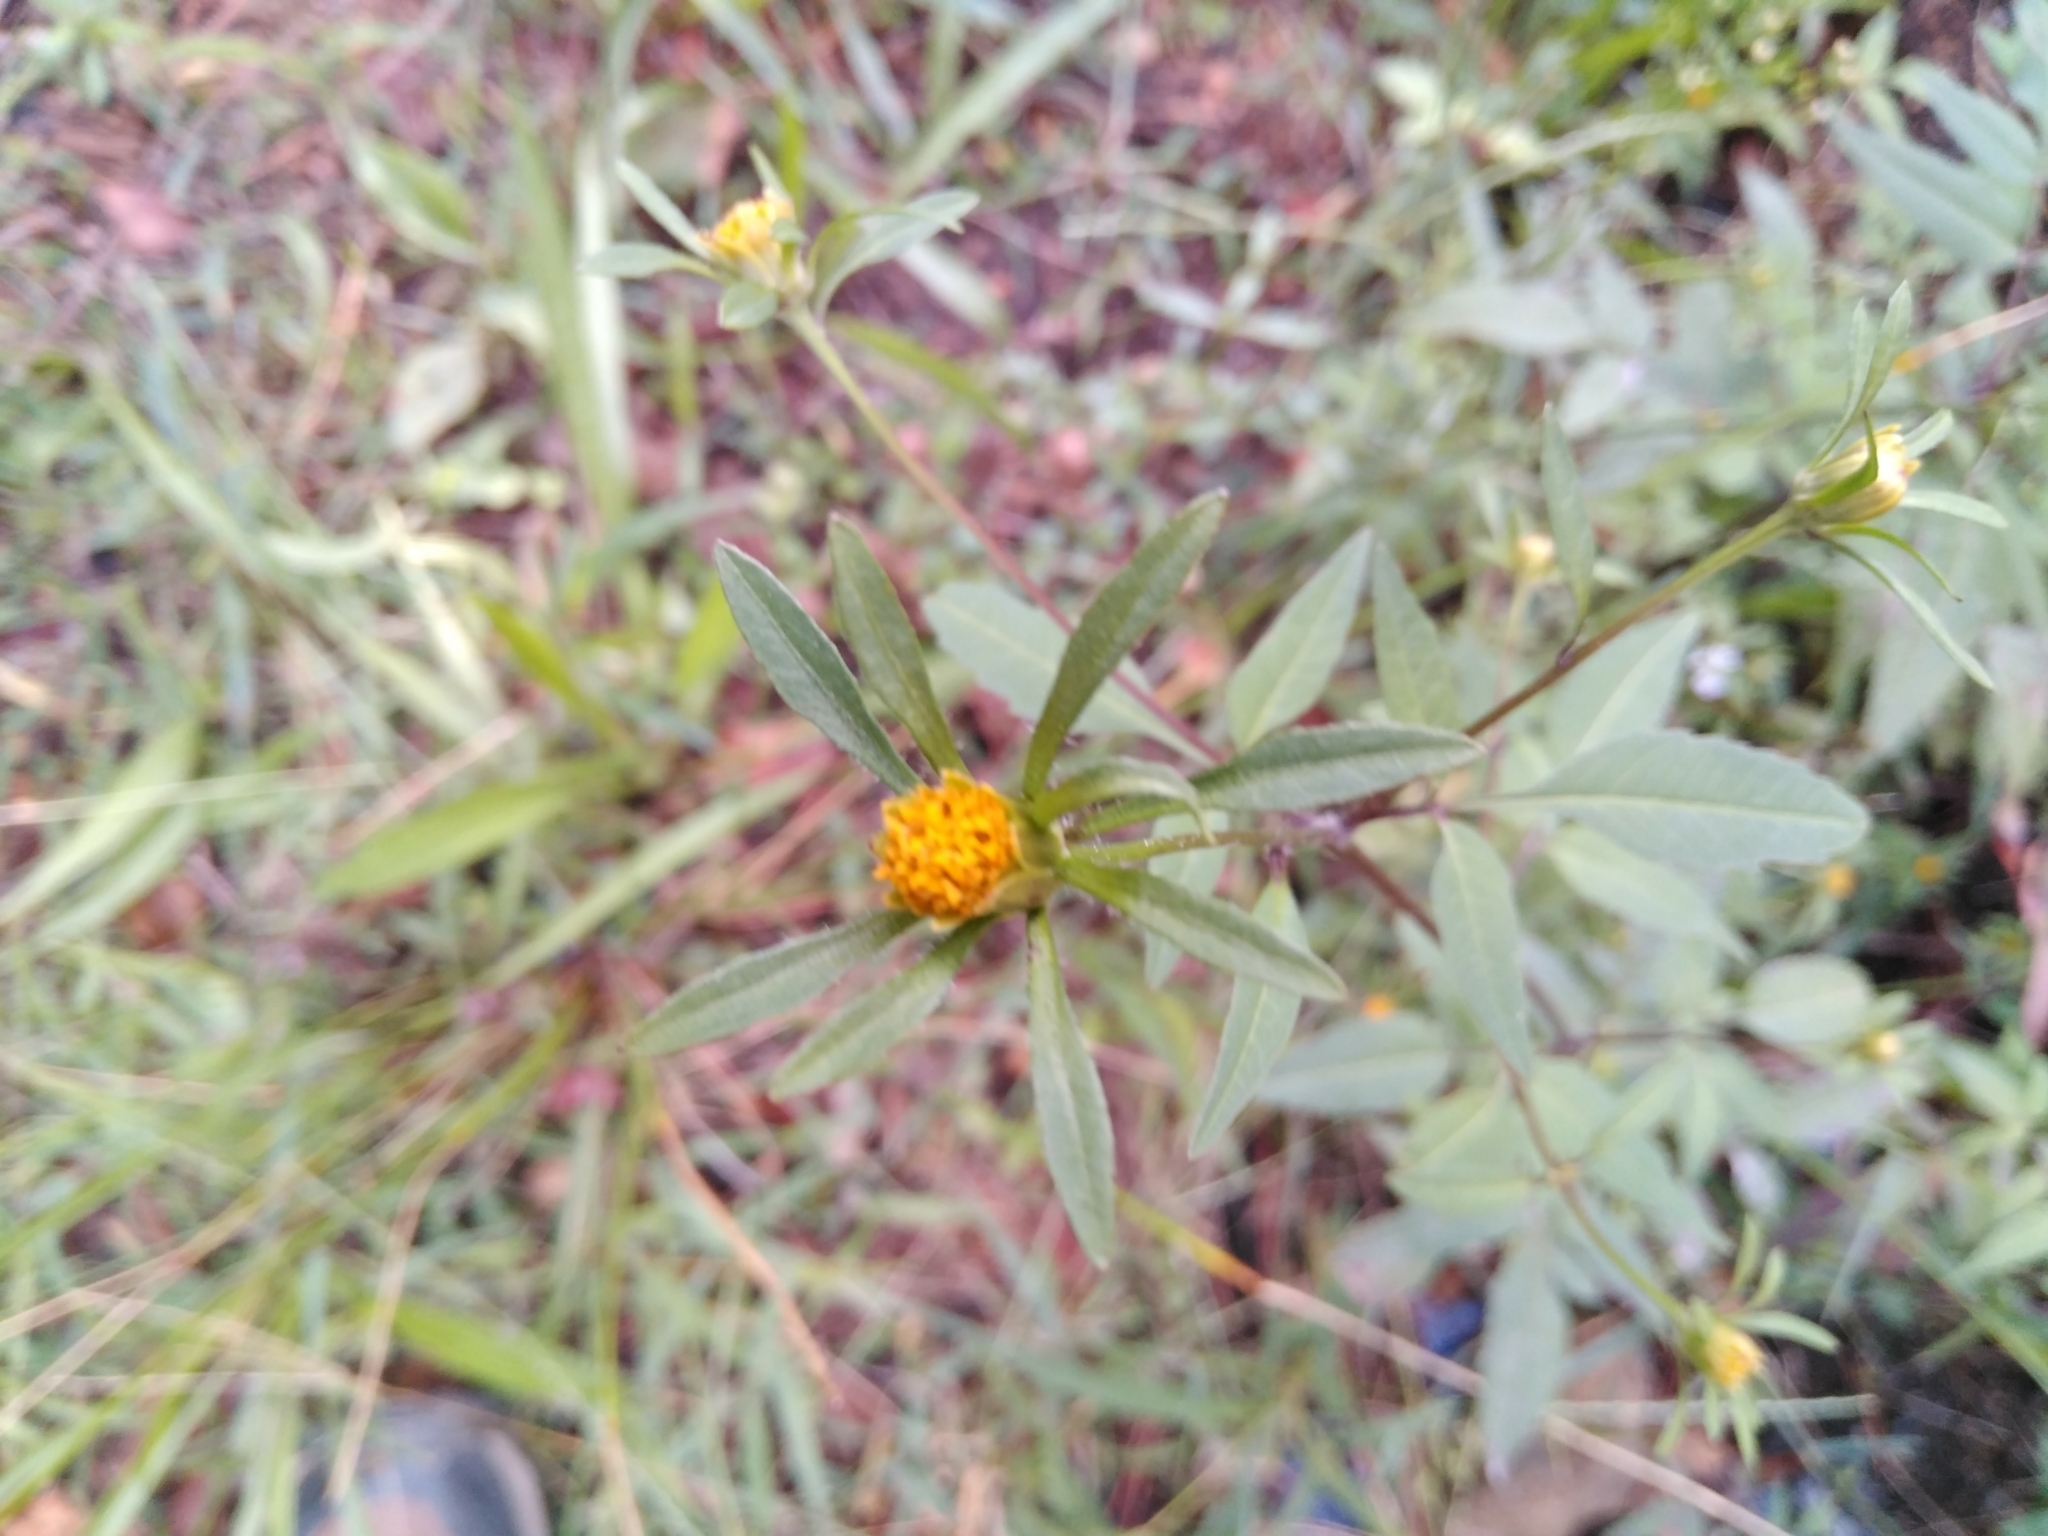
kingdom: Plantae
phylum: Tracheophyta
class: Magnoliopsida
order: Asterales
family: Asteraceae
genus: Bidens
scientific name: Bidens frondosa
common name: Beggarticks
